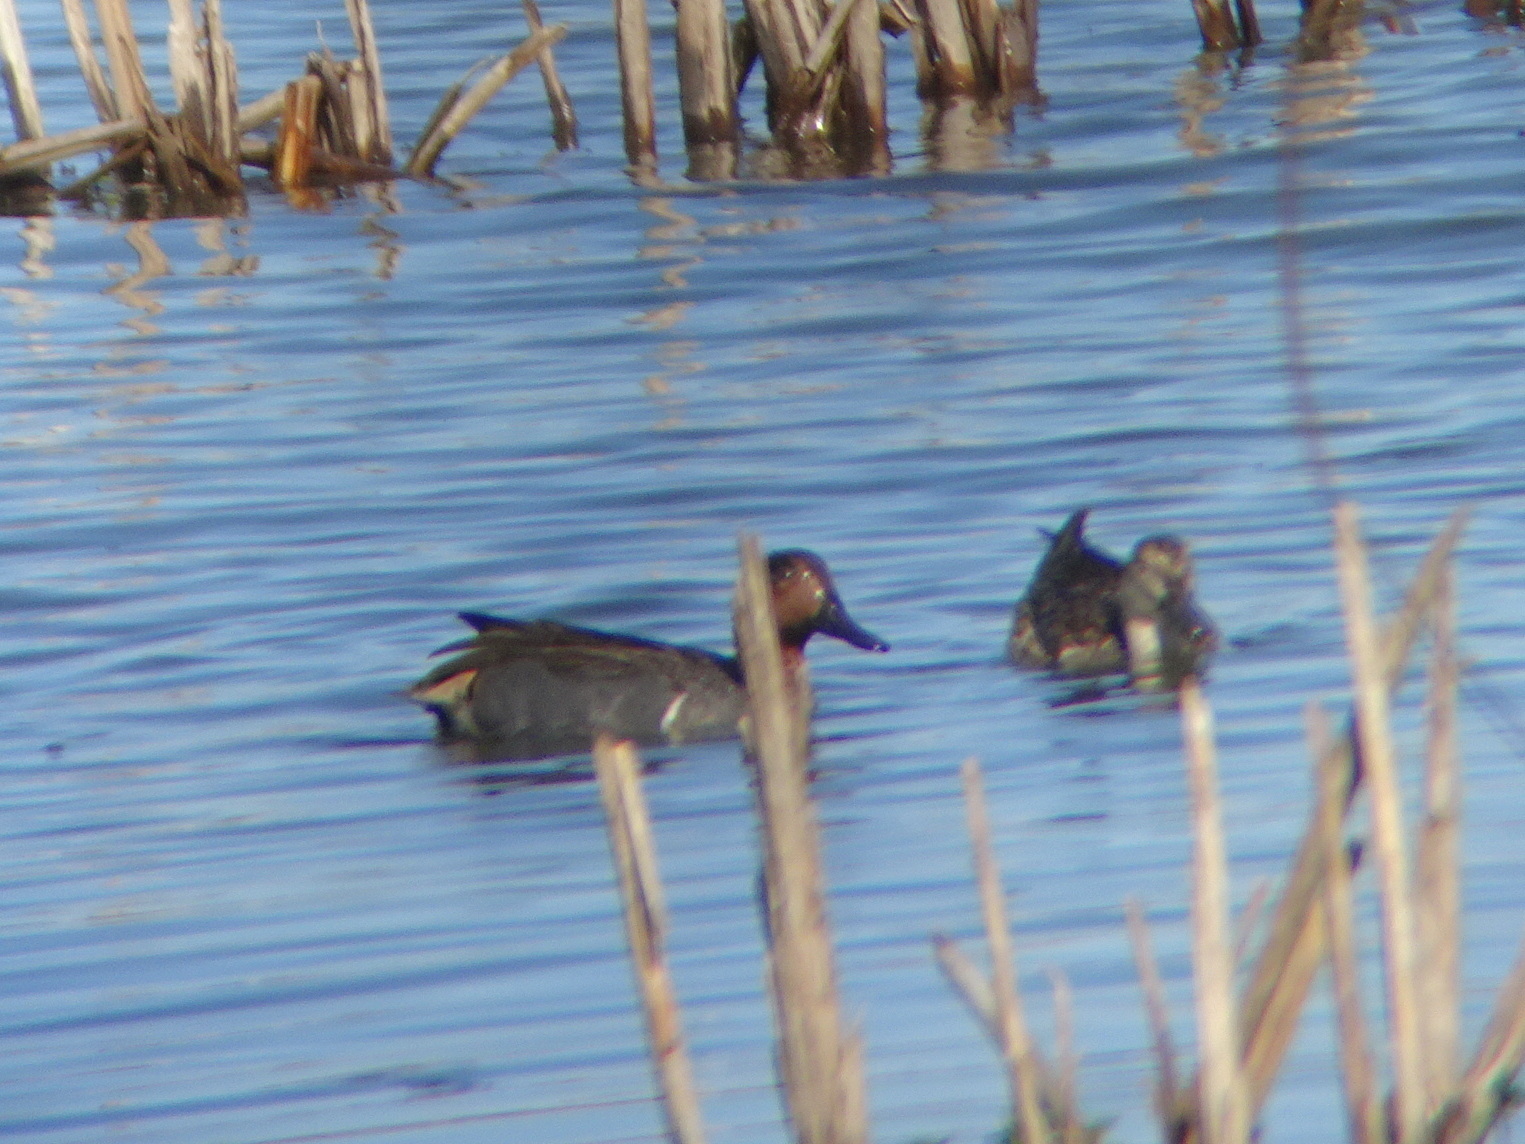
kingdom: Animalia
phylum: Chordata
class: Aves
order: Anseriformes
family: Anatidae
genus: Anas
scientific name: Anas crecca
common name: Eurasian teal
